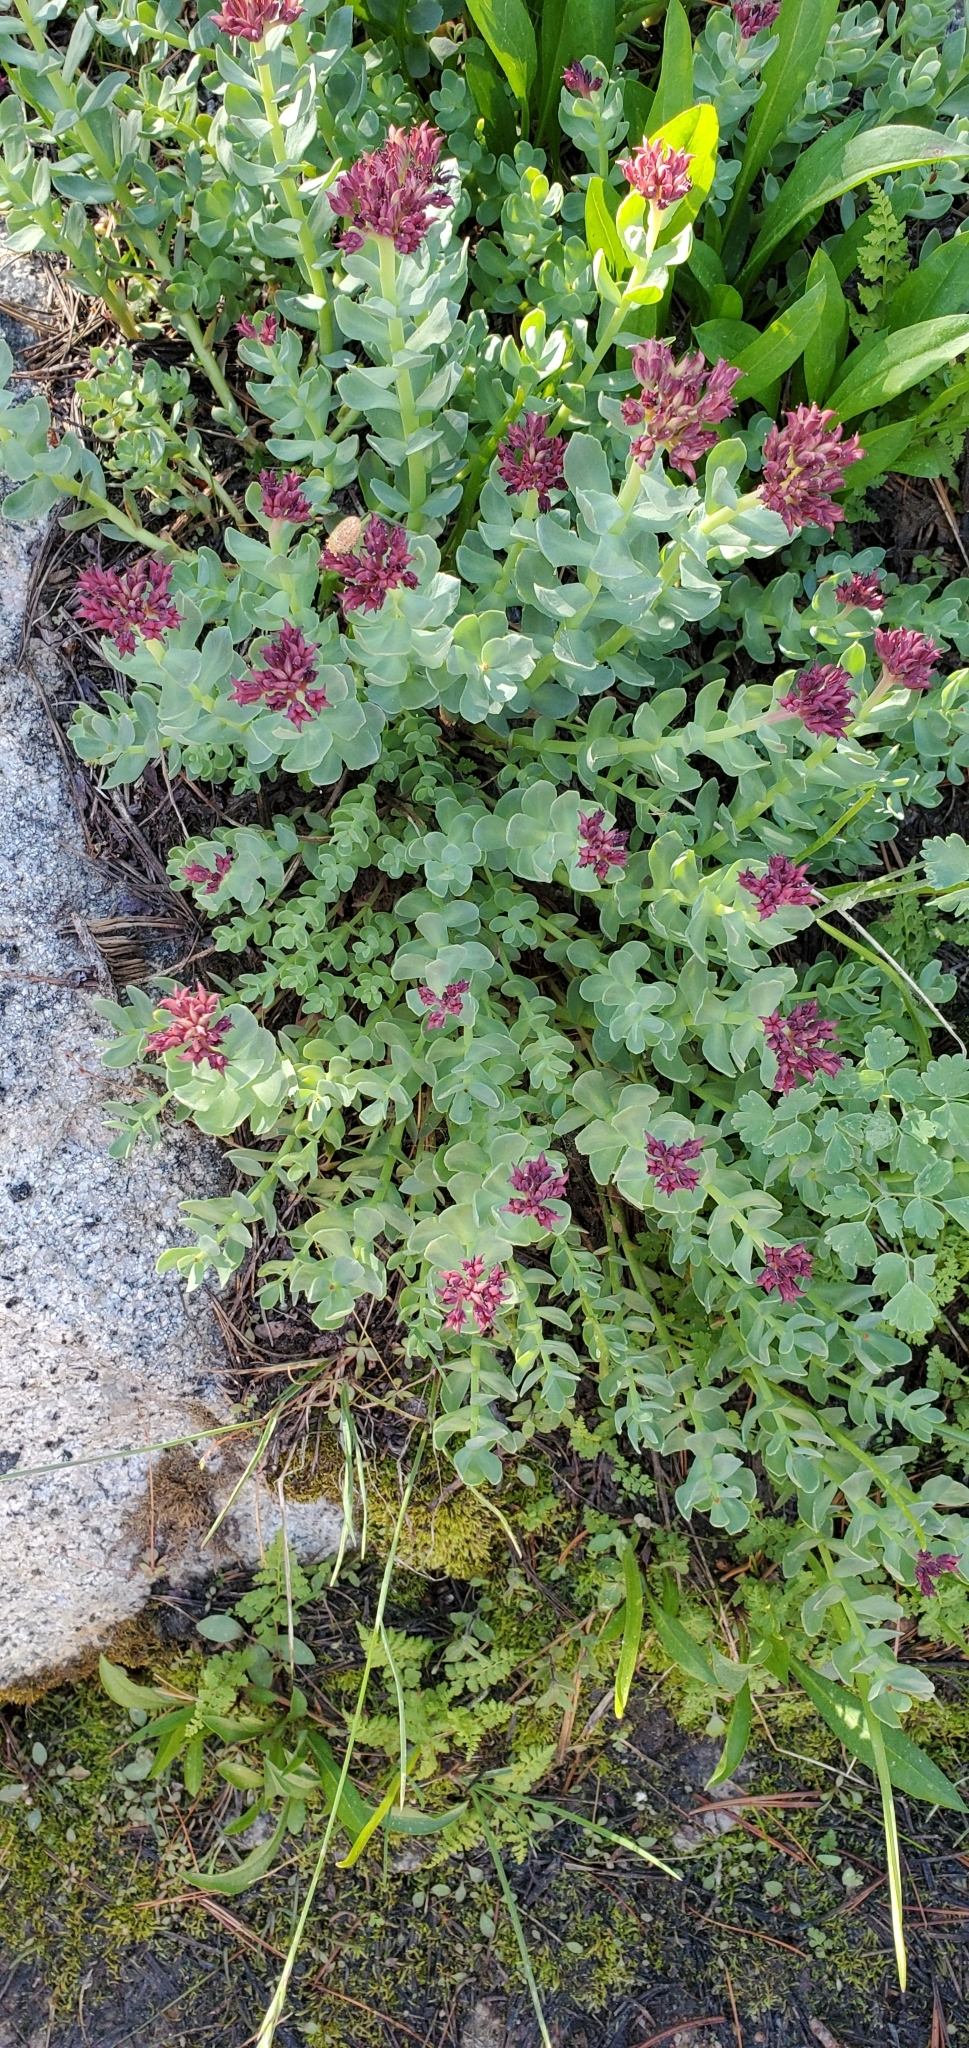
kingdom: Plantae
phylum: Tracheophyta
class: Magnoliopsida
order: Saxifragales
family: Crassulaceae
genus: Rhodiola
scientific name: Rhodiola integrifolia
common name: Western roseroot
